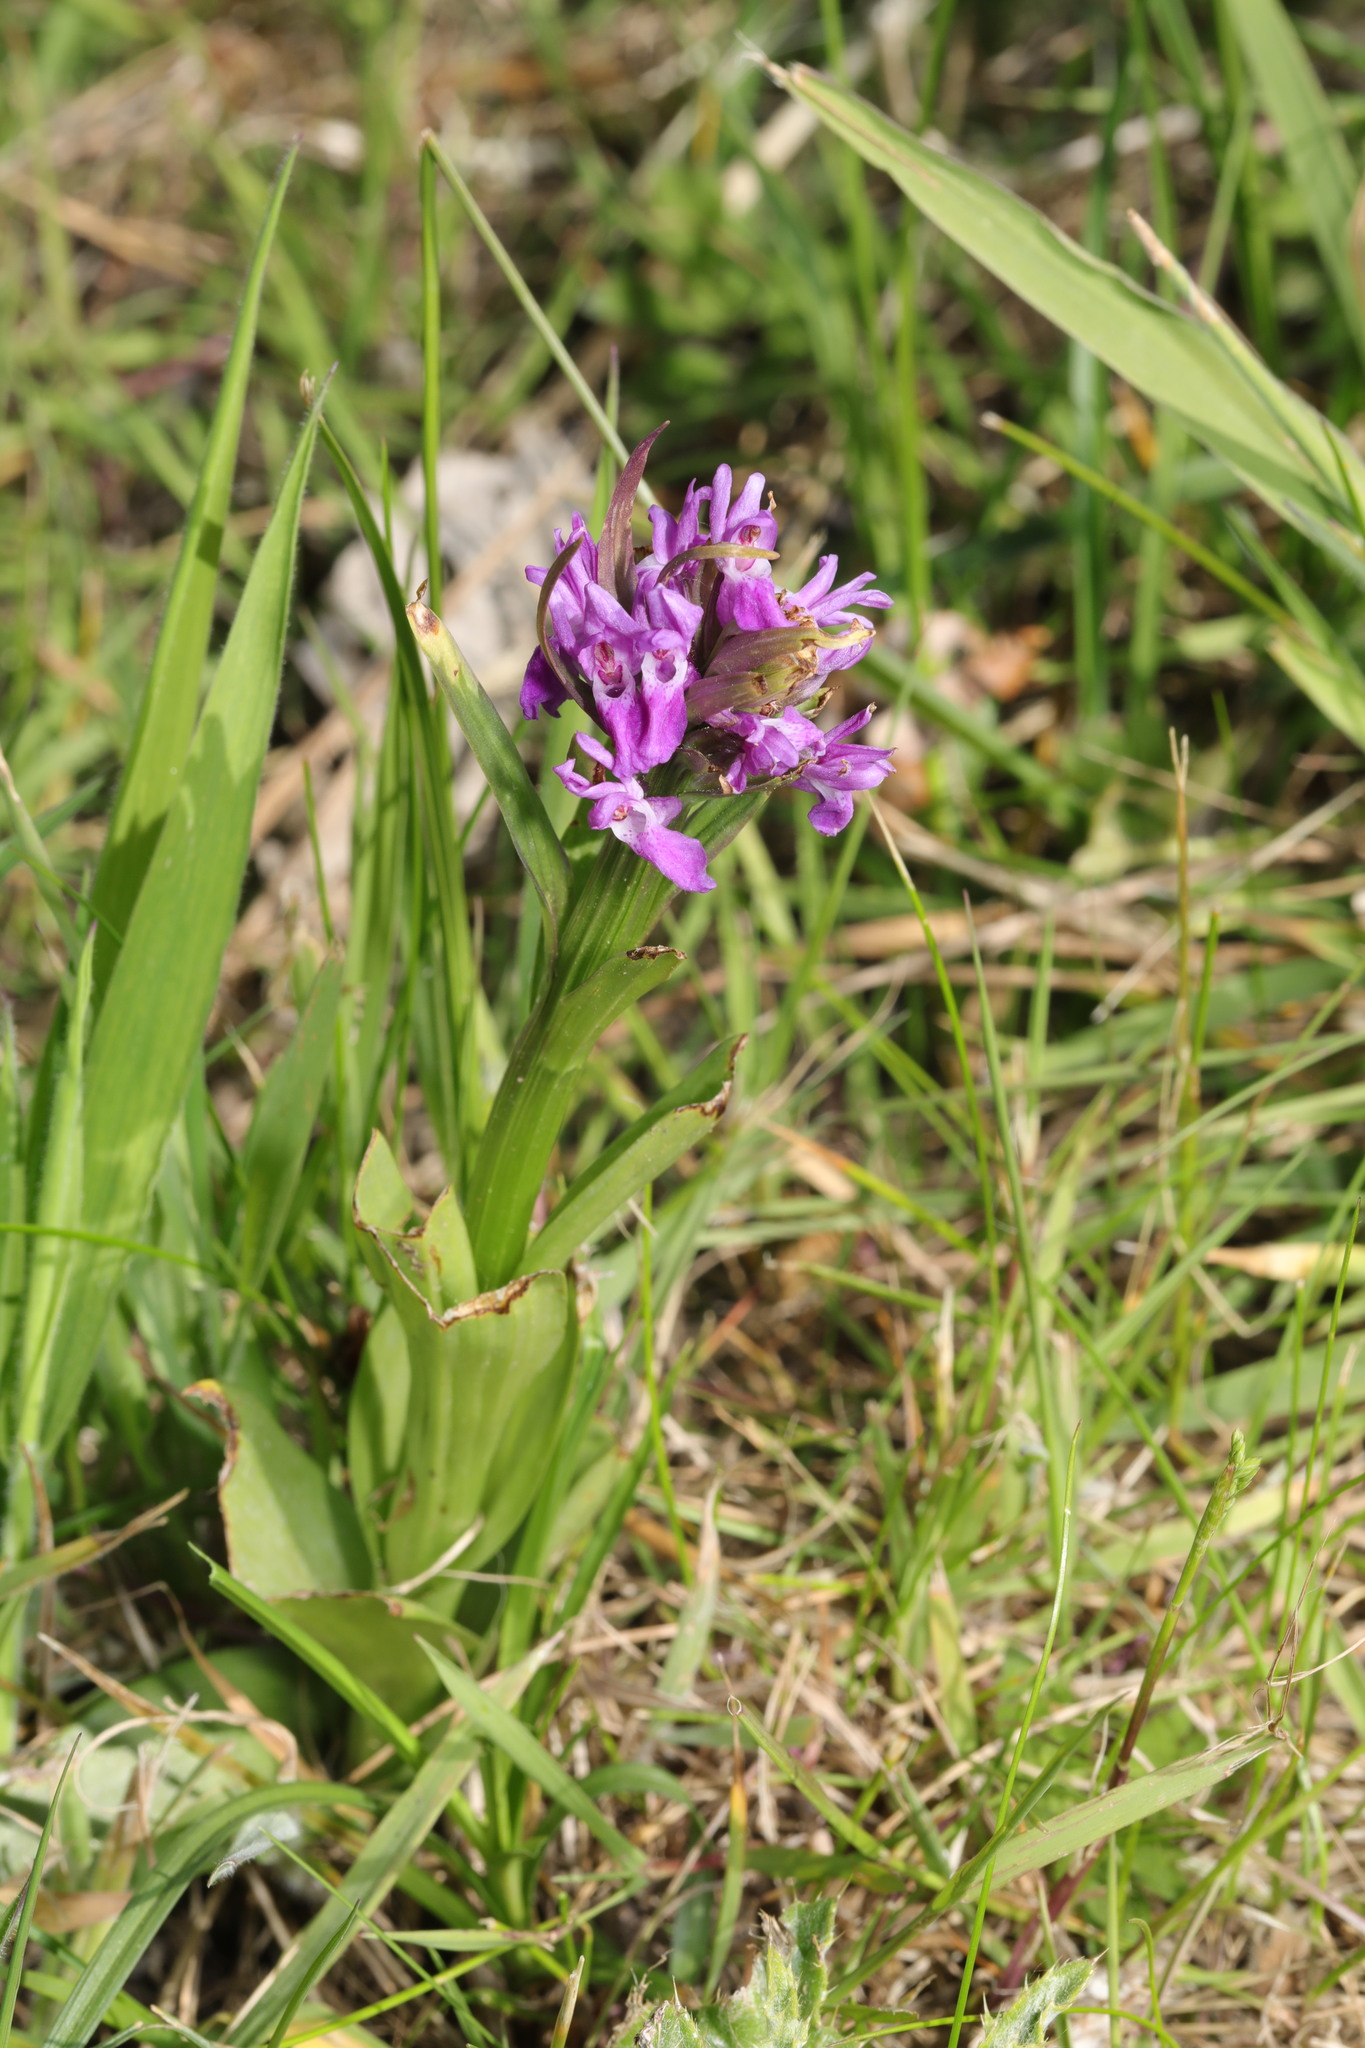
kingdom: Plantae
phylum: Tracheophyta
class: Liliopsida
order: Asparagales
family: Orchidaceae
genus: Dactylorhiza
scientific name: Dactylorhiza majalis
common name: Marsh orchid
